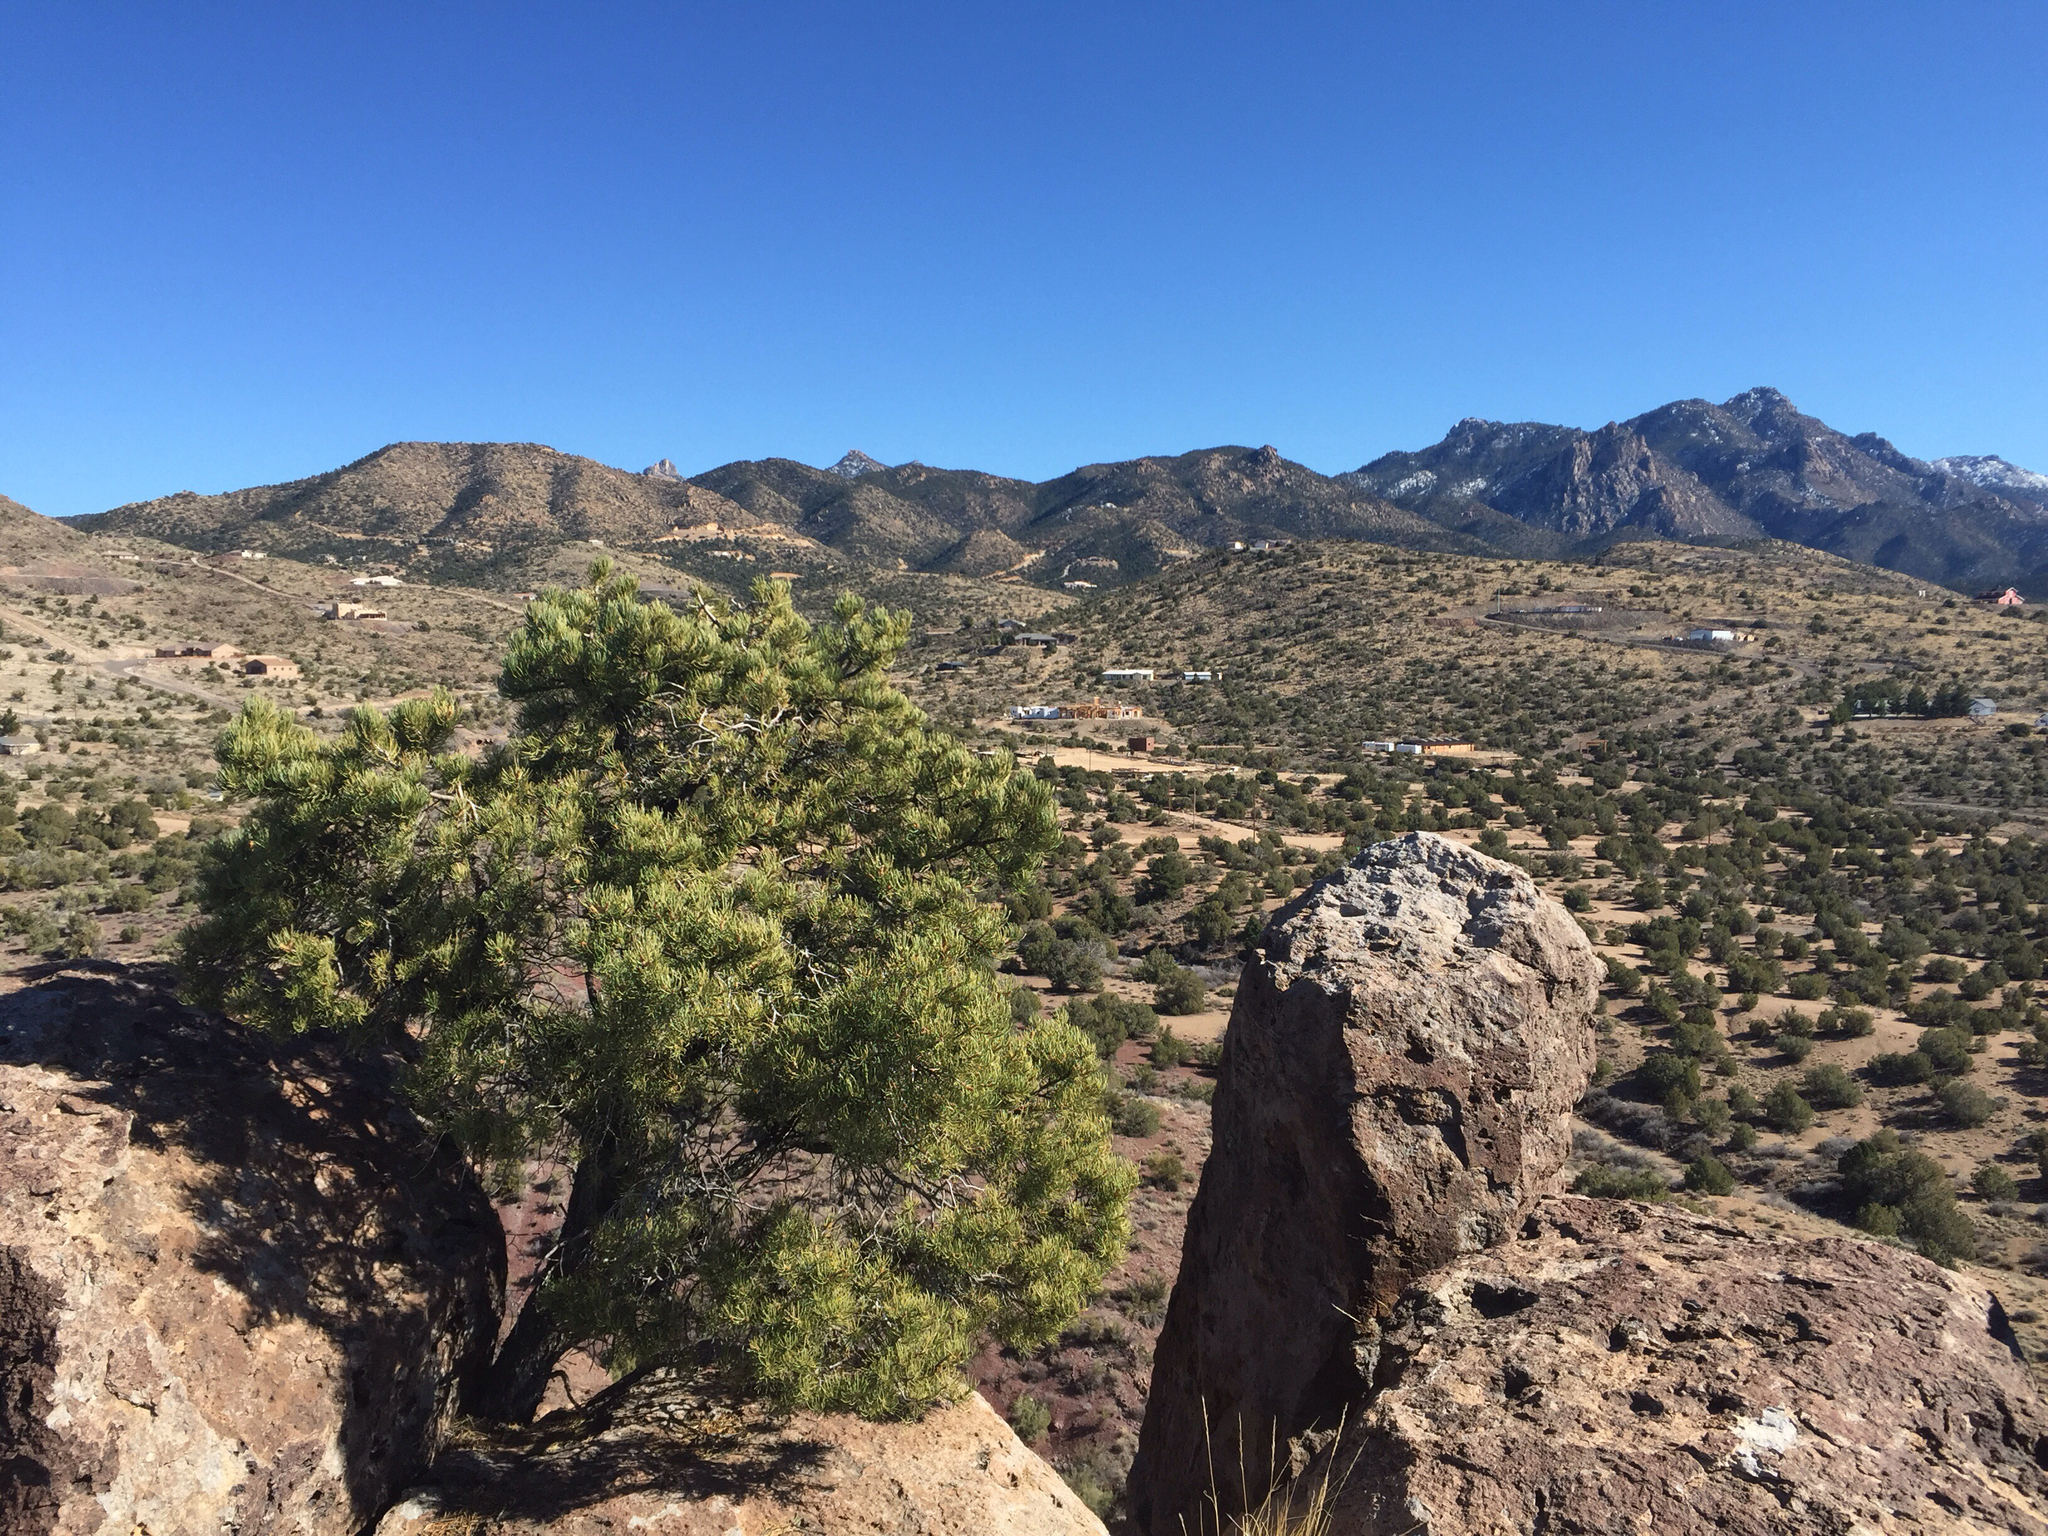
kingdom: Plantae
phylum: Tracheophyta
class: Pinopsida
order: Pinales
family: Pinaceae
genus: Pinus
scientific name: Pinus edulis
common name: Colorado pinyon
